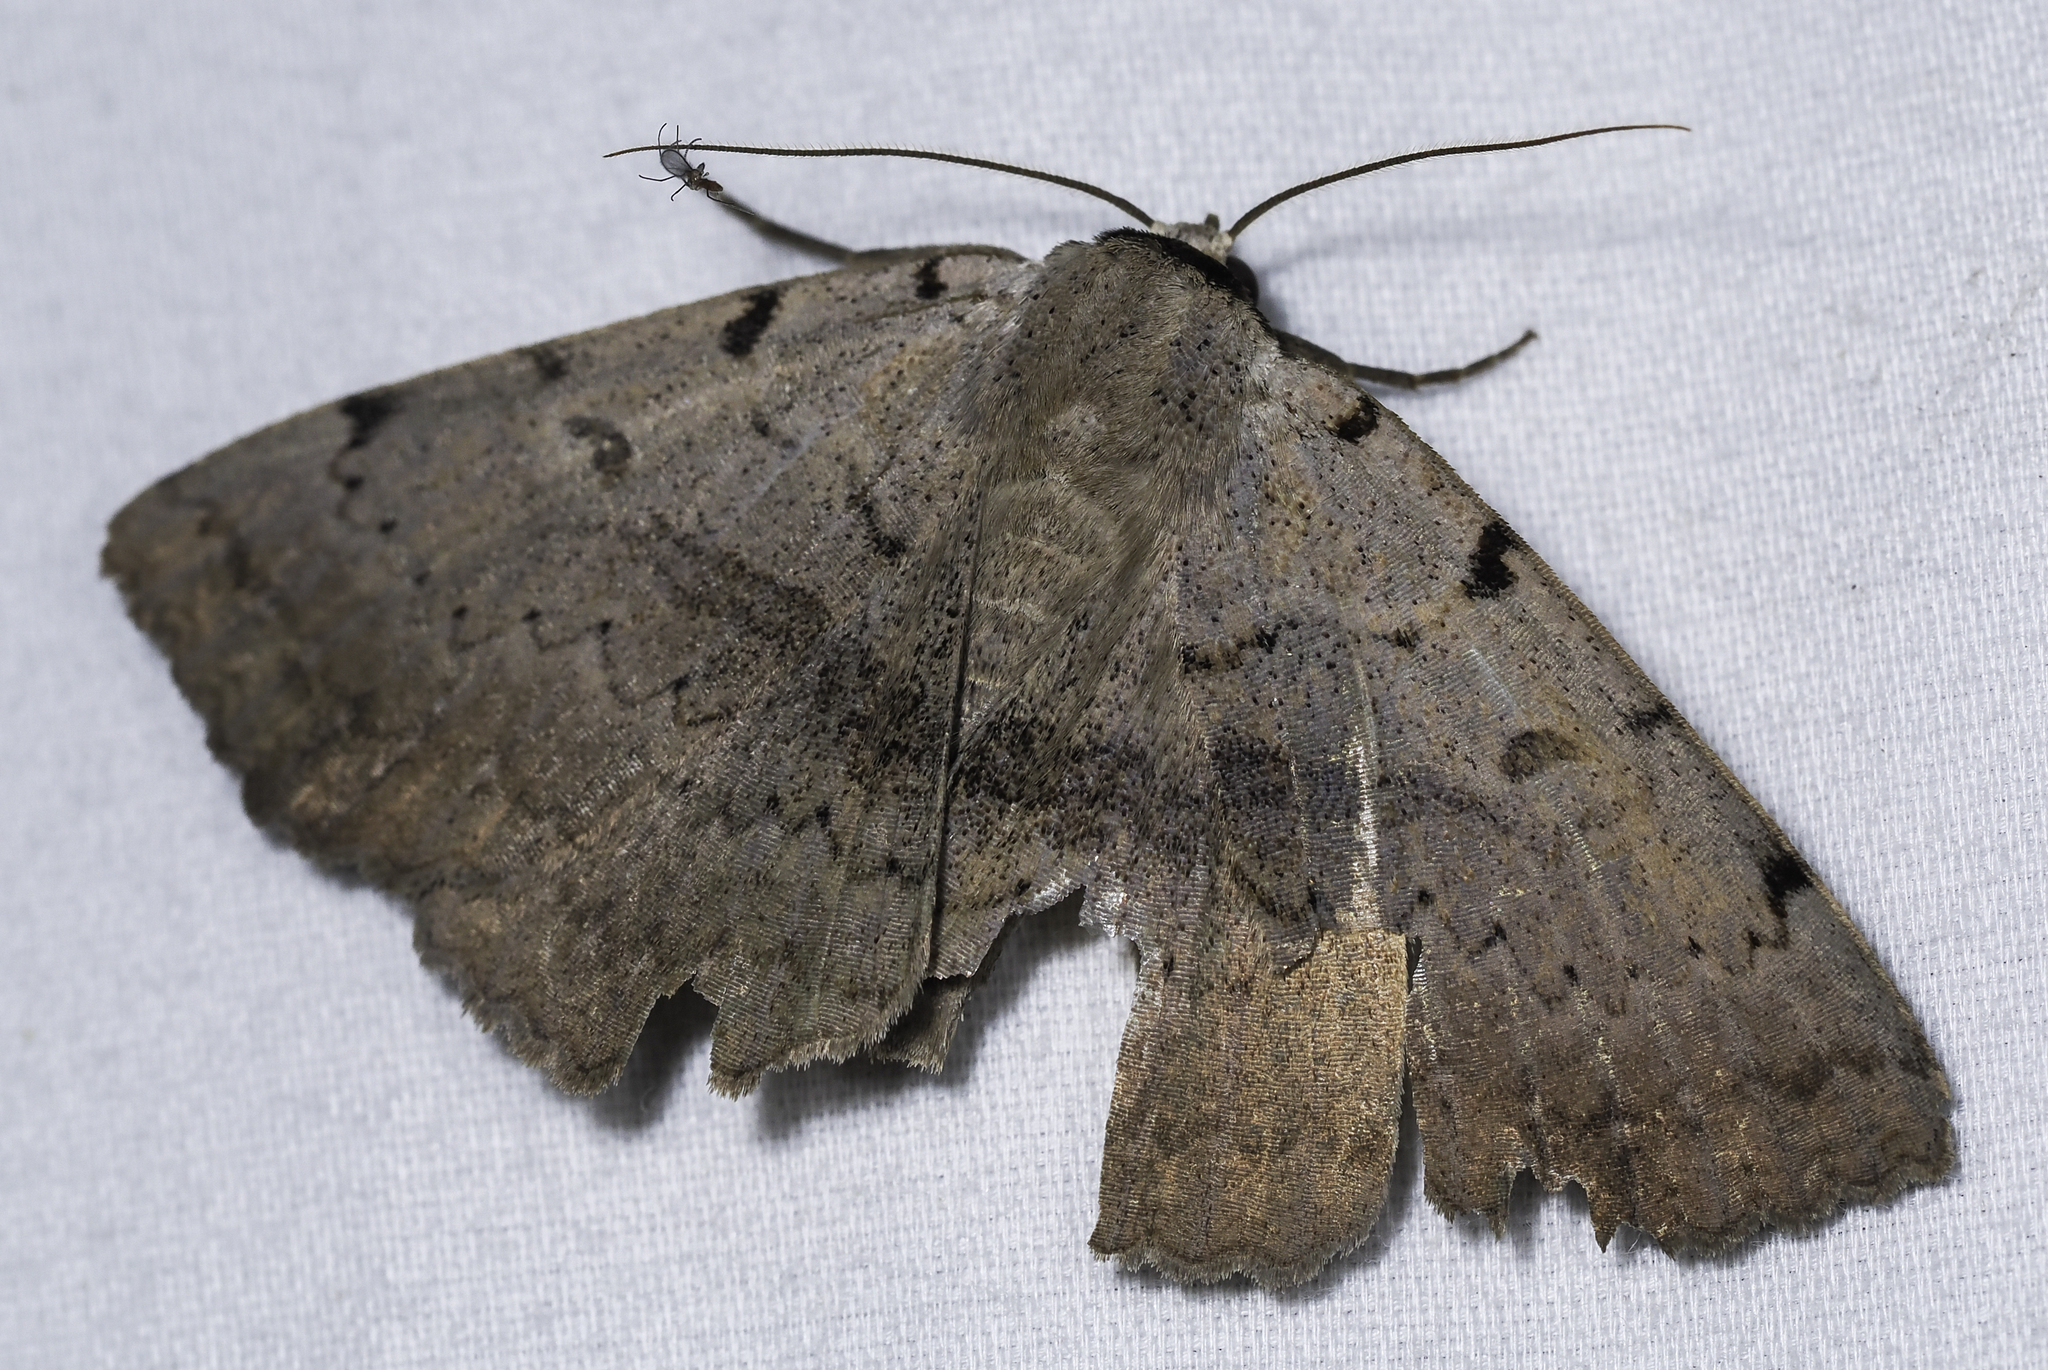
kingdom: Animalia
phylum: Arthropoda
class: Insecta
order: Lepidoptera
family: Erebidae
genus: Spiloloma
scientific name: Spiloloma lunilinea
